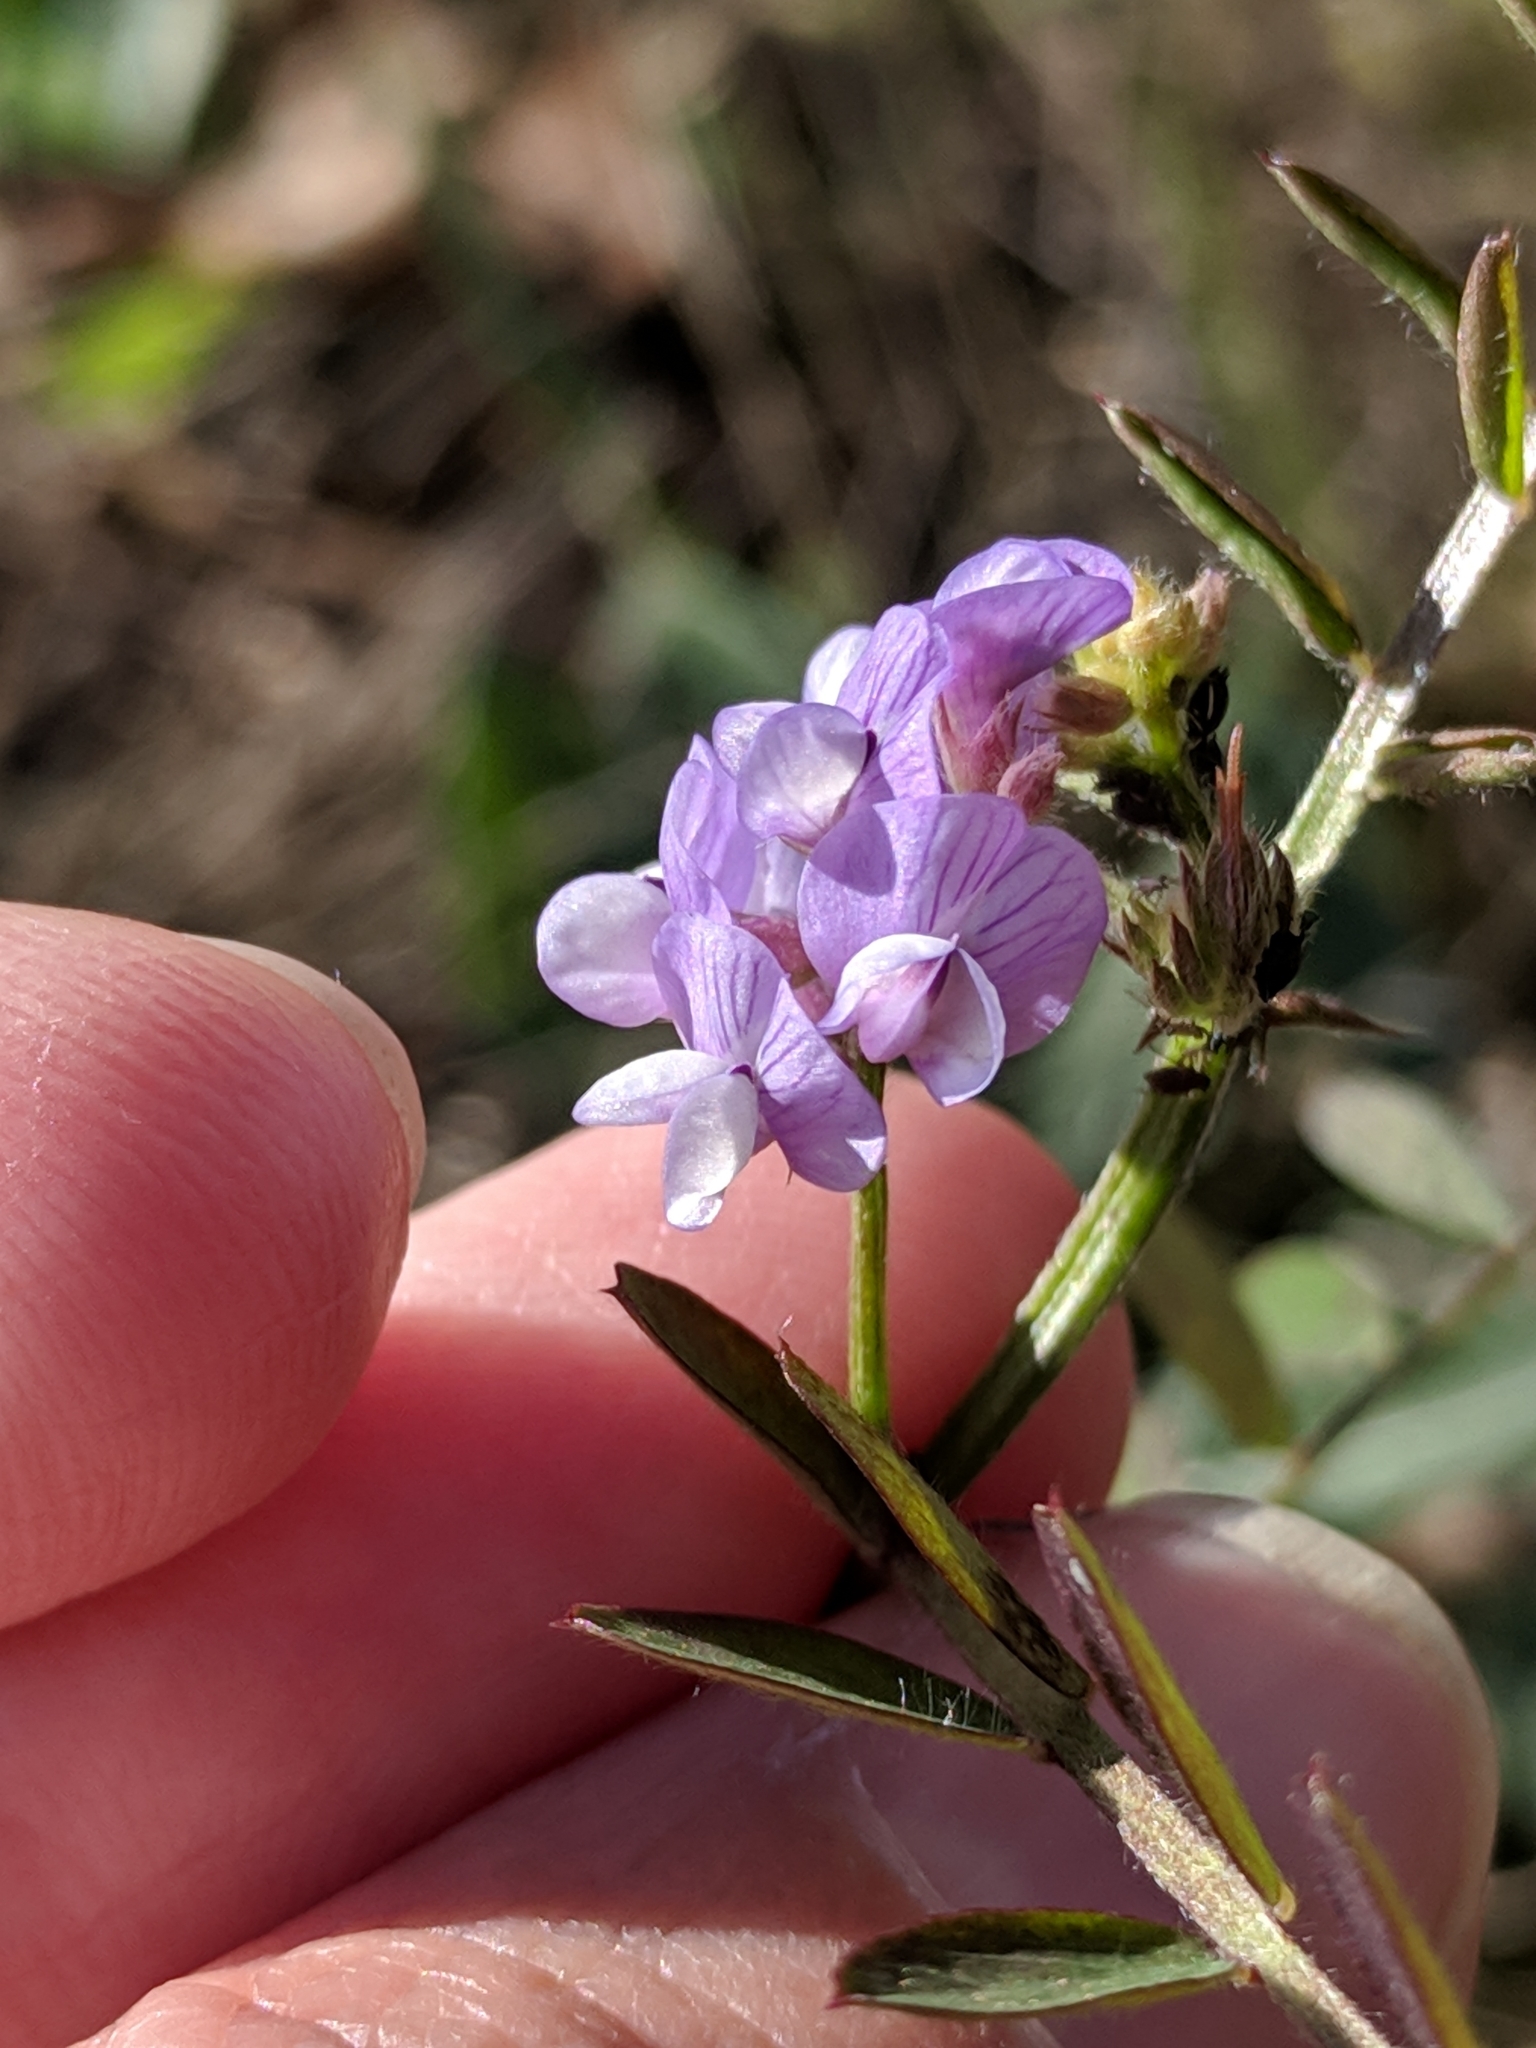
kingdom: Plantae
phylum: Tracheophyta
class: Magnoliopsida
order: Fabales
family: Fabaceae
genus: Vicia
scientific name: Vicia ludoviciana
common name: Louisiana vetch
